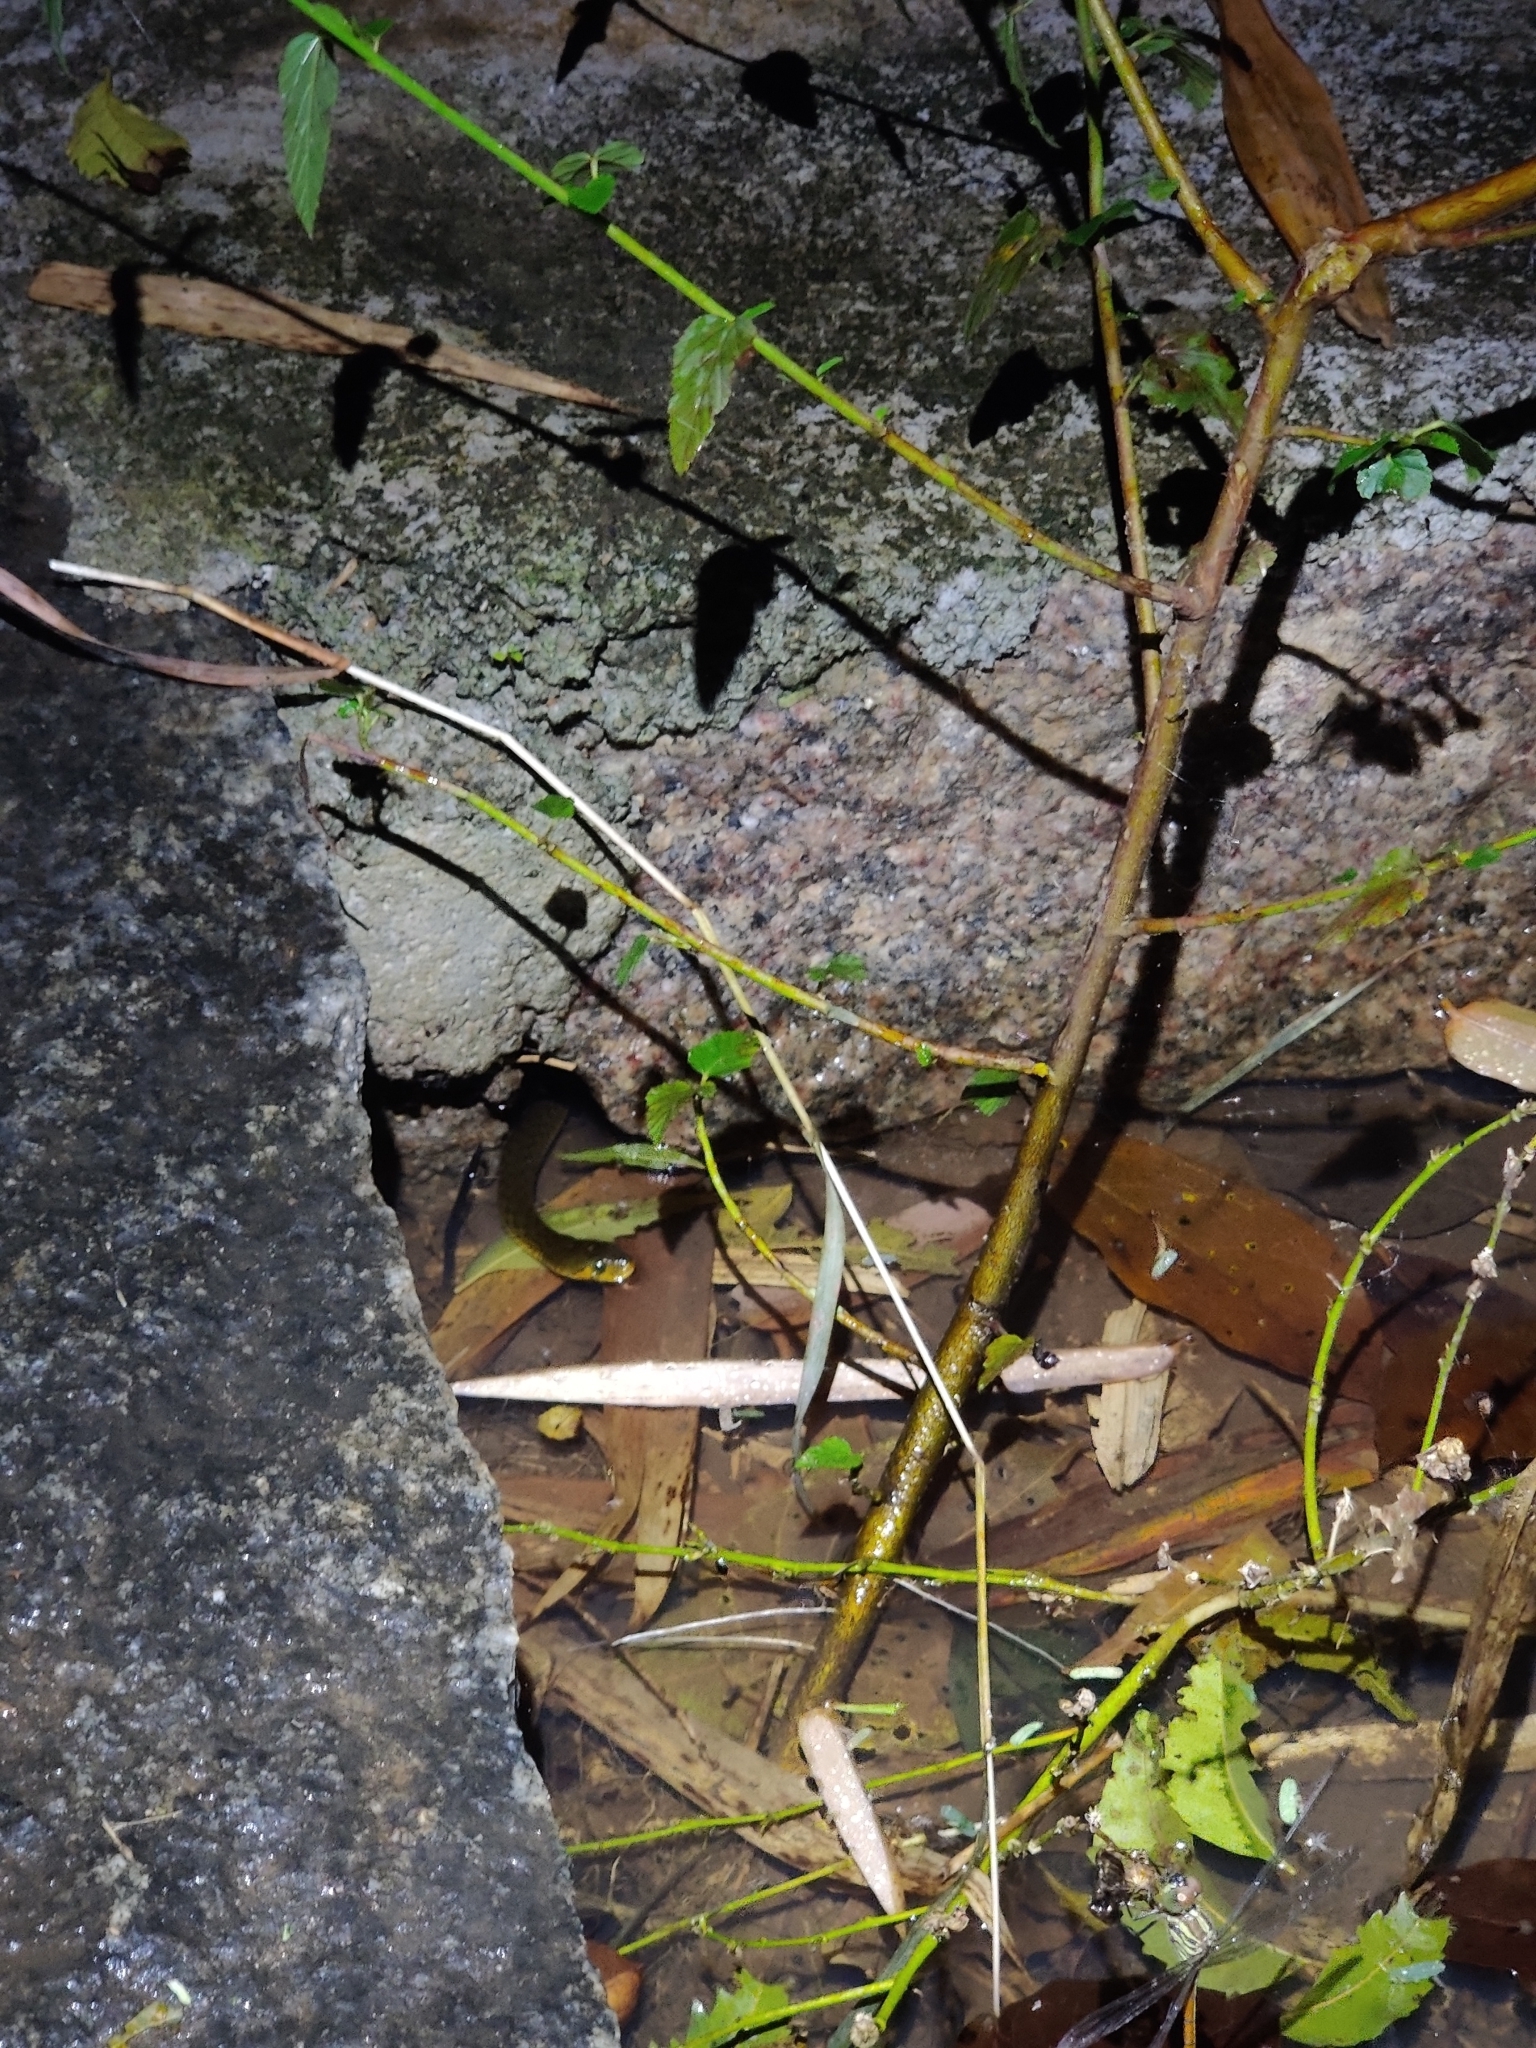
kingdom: Animalia
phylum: Chordata
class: Squamata
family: Colubridae
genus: Fowlea
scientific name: Fowlea piscator
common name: Asiatic water snake
